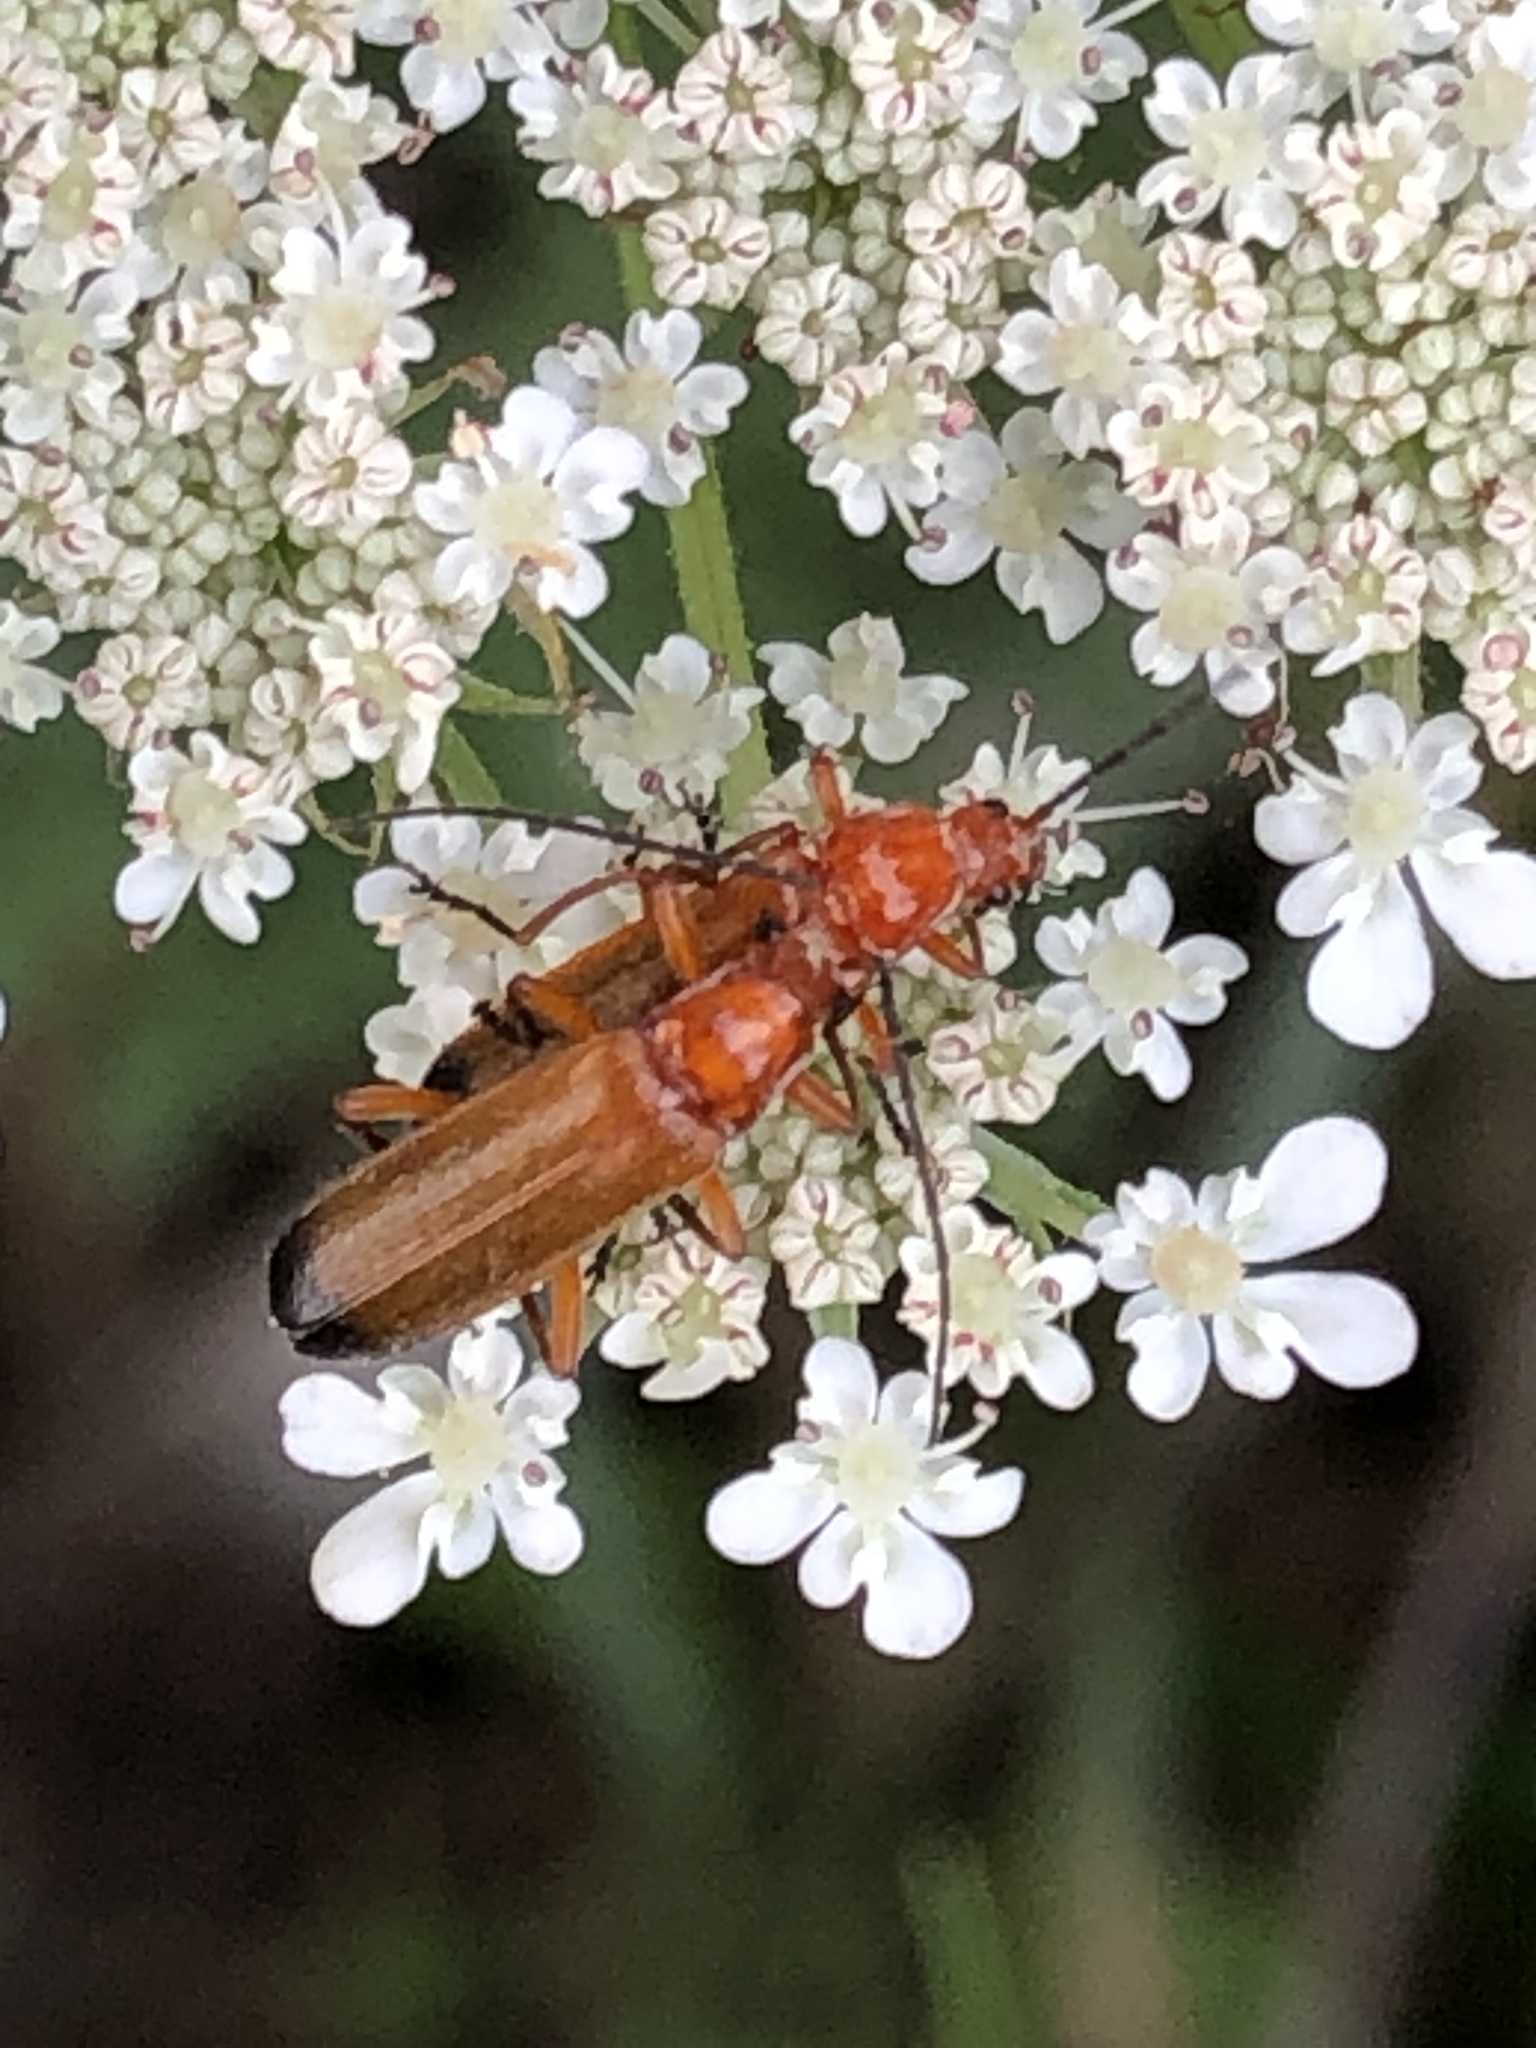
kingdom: Animalia
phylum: Arthropoda
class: Insecta
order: Coleoptera
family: Cantharidae
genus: Rhagonycha
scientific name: Rhagonycha fulva
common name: Common red soldier beetle
